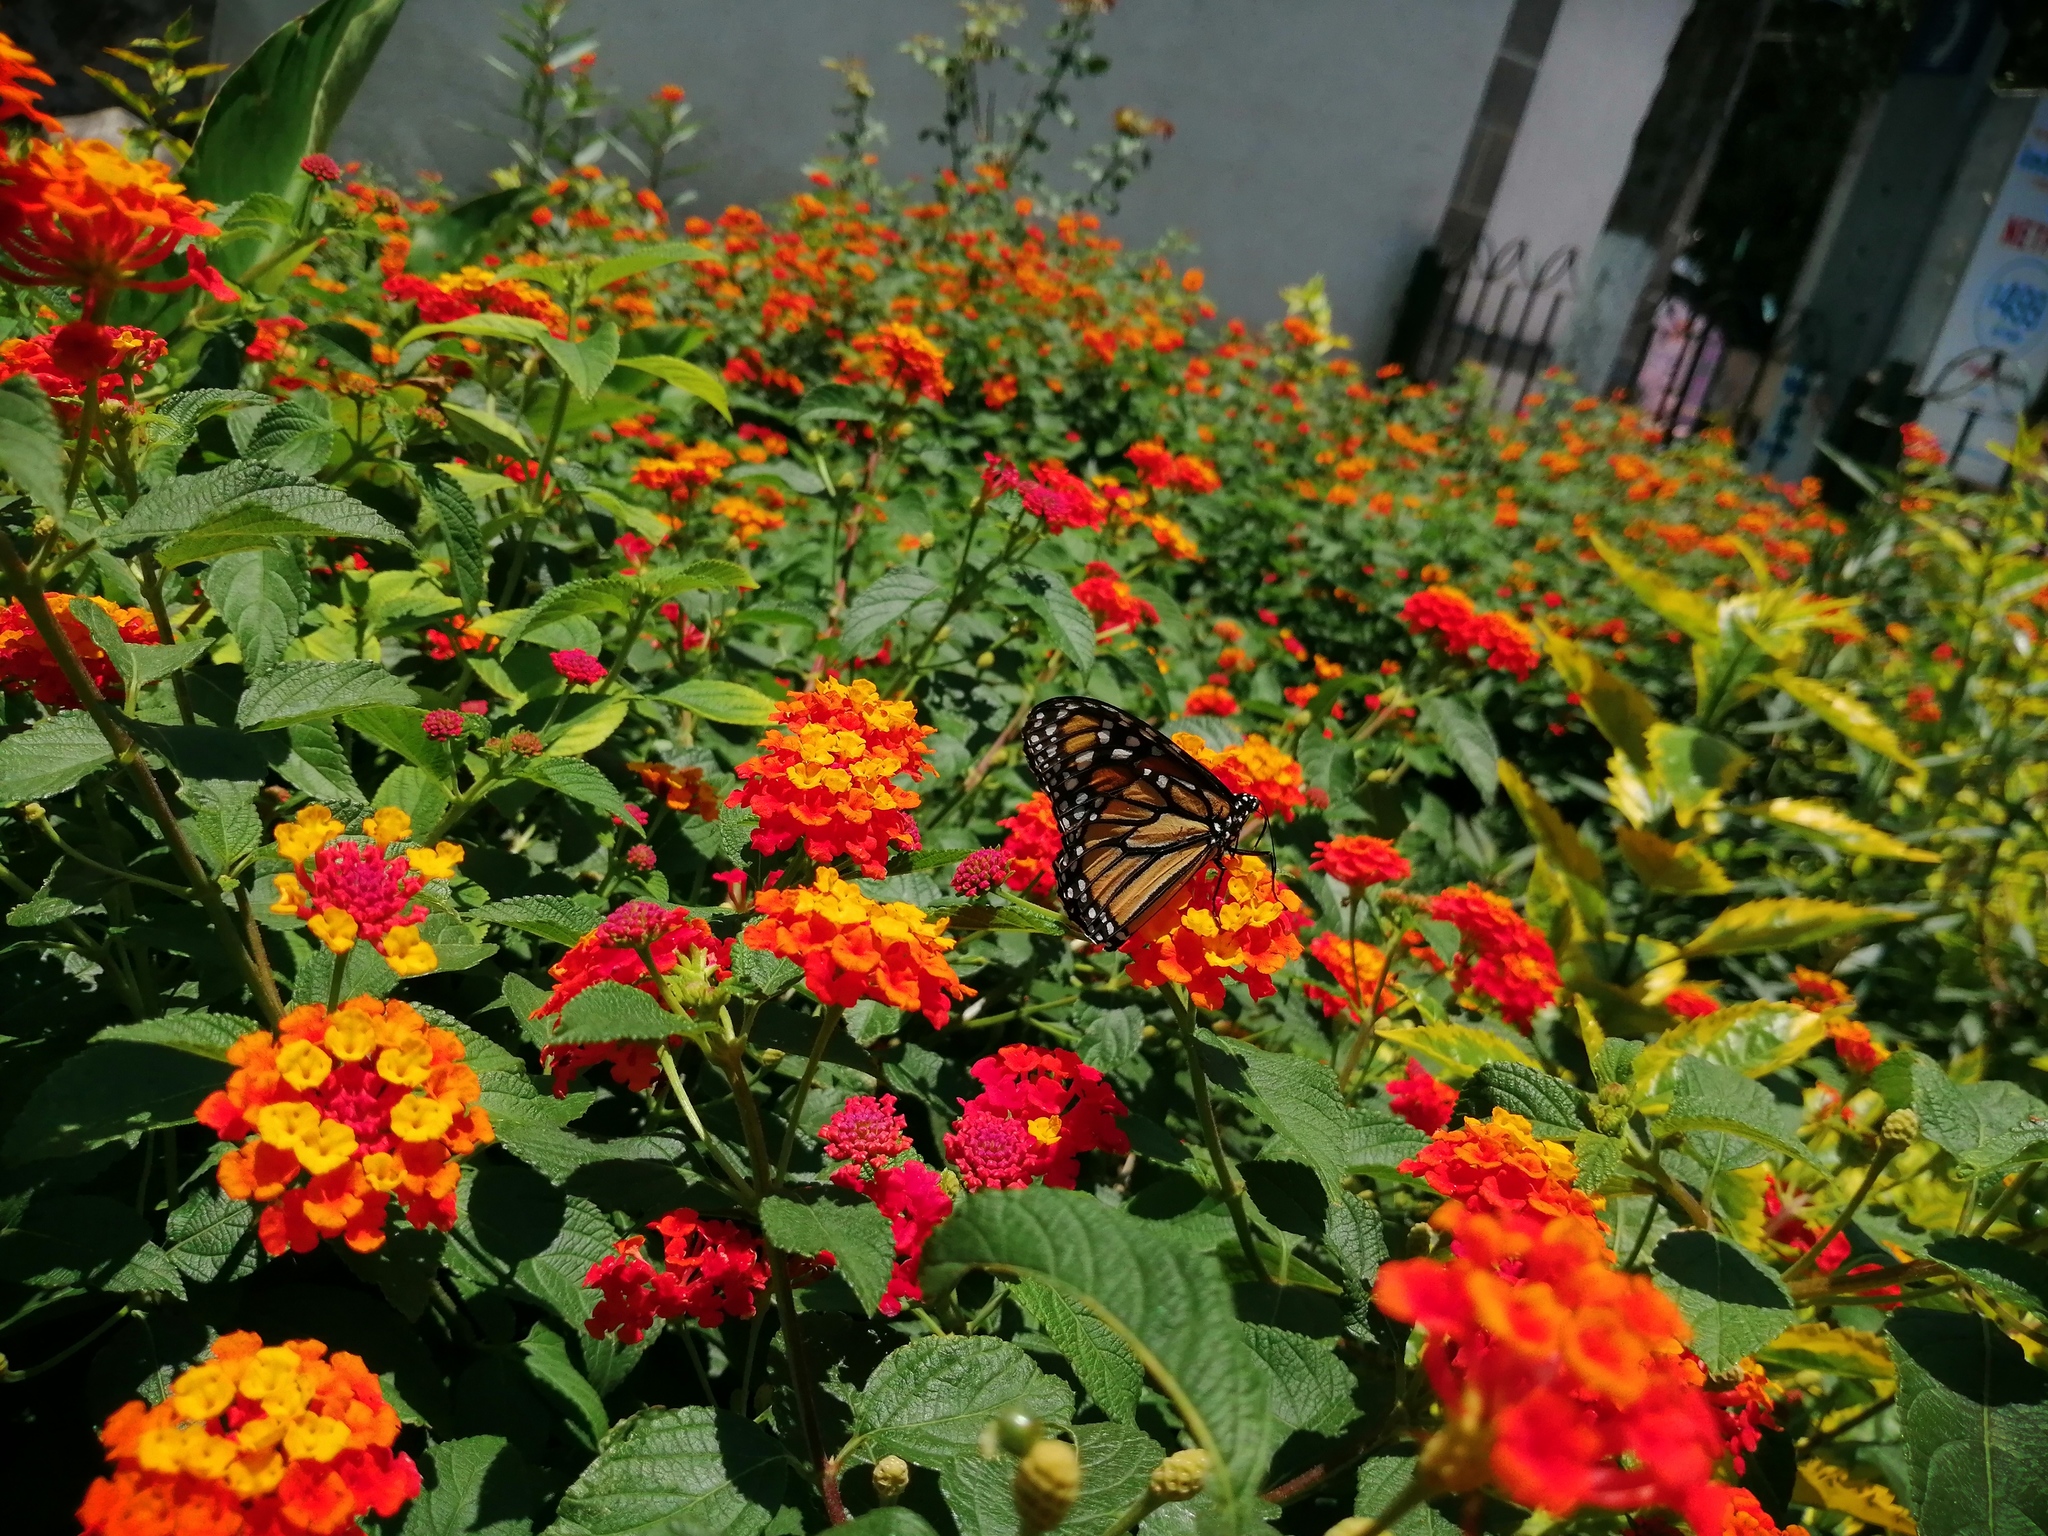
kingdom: Animalia
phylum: Arthropoda
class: Insecta
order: Lepidoptera
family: Nymphalidae
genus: Danaus
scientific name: Danaus plexippus
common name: Monarch
